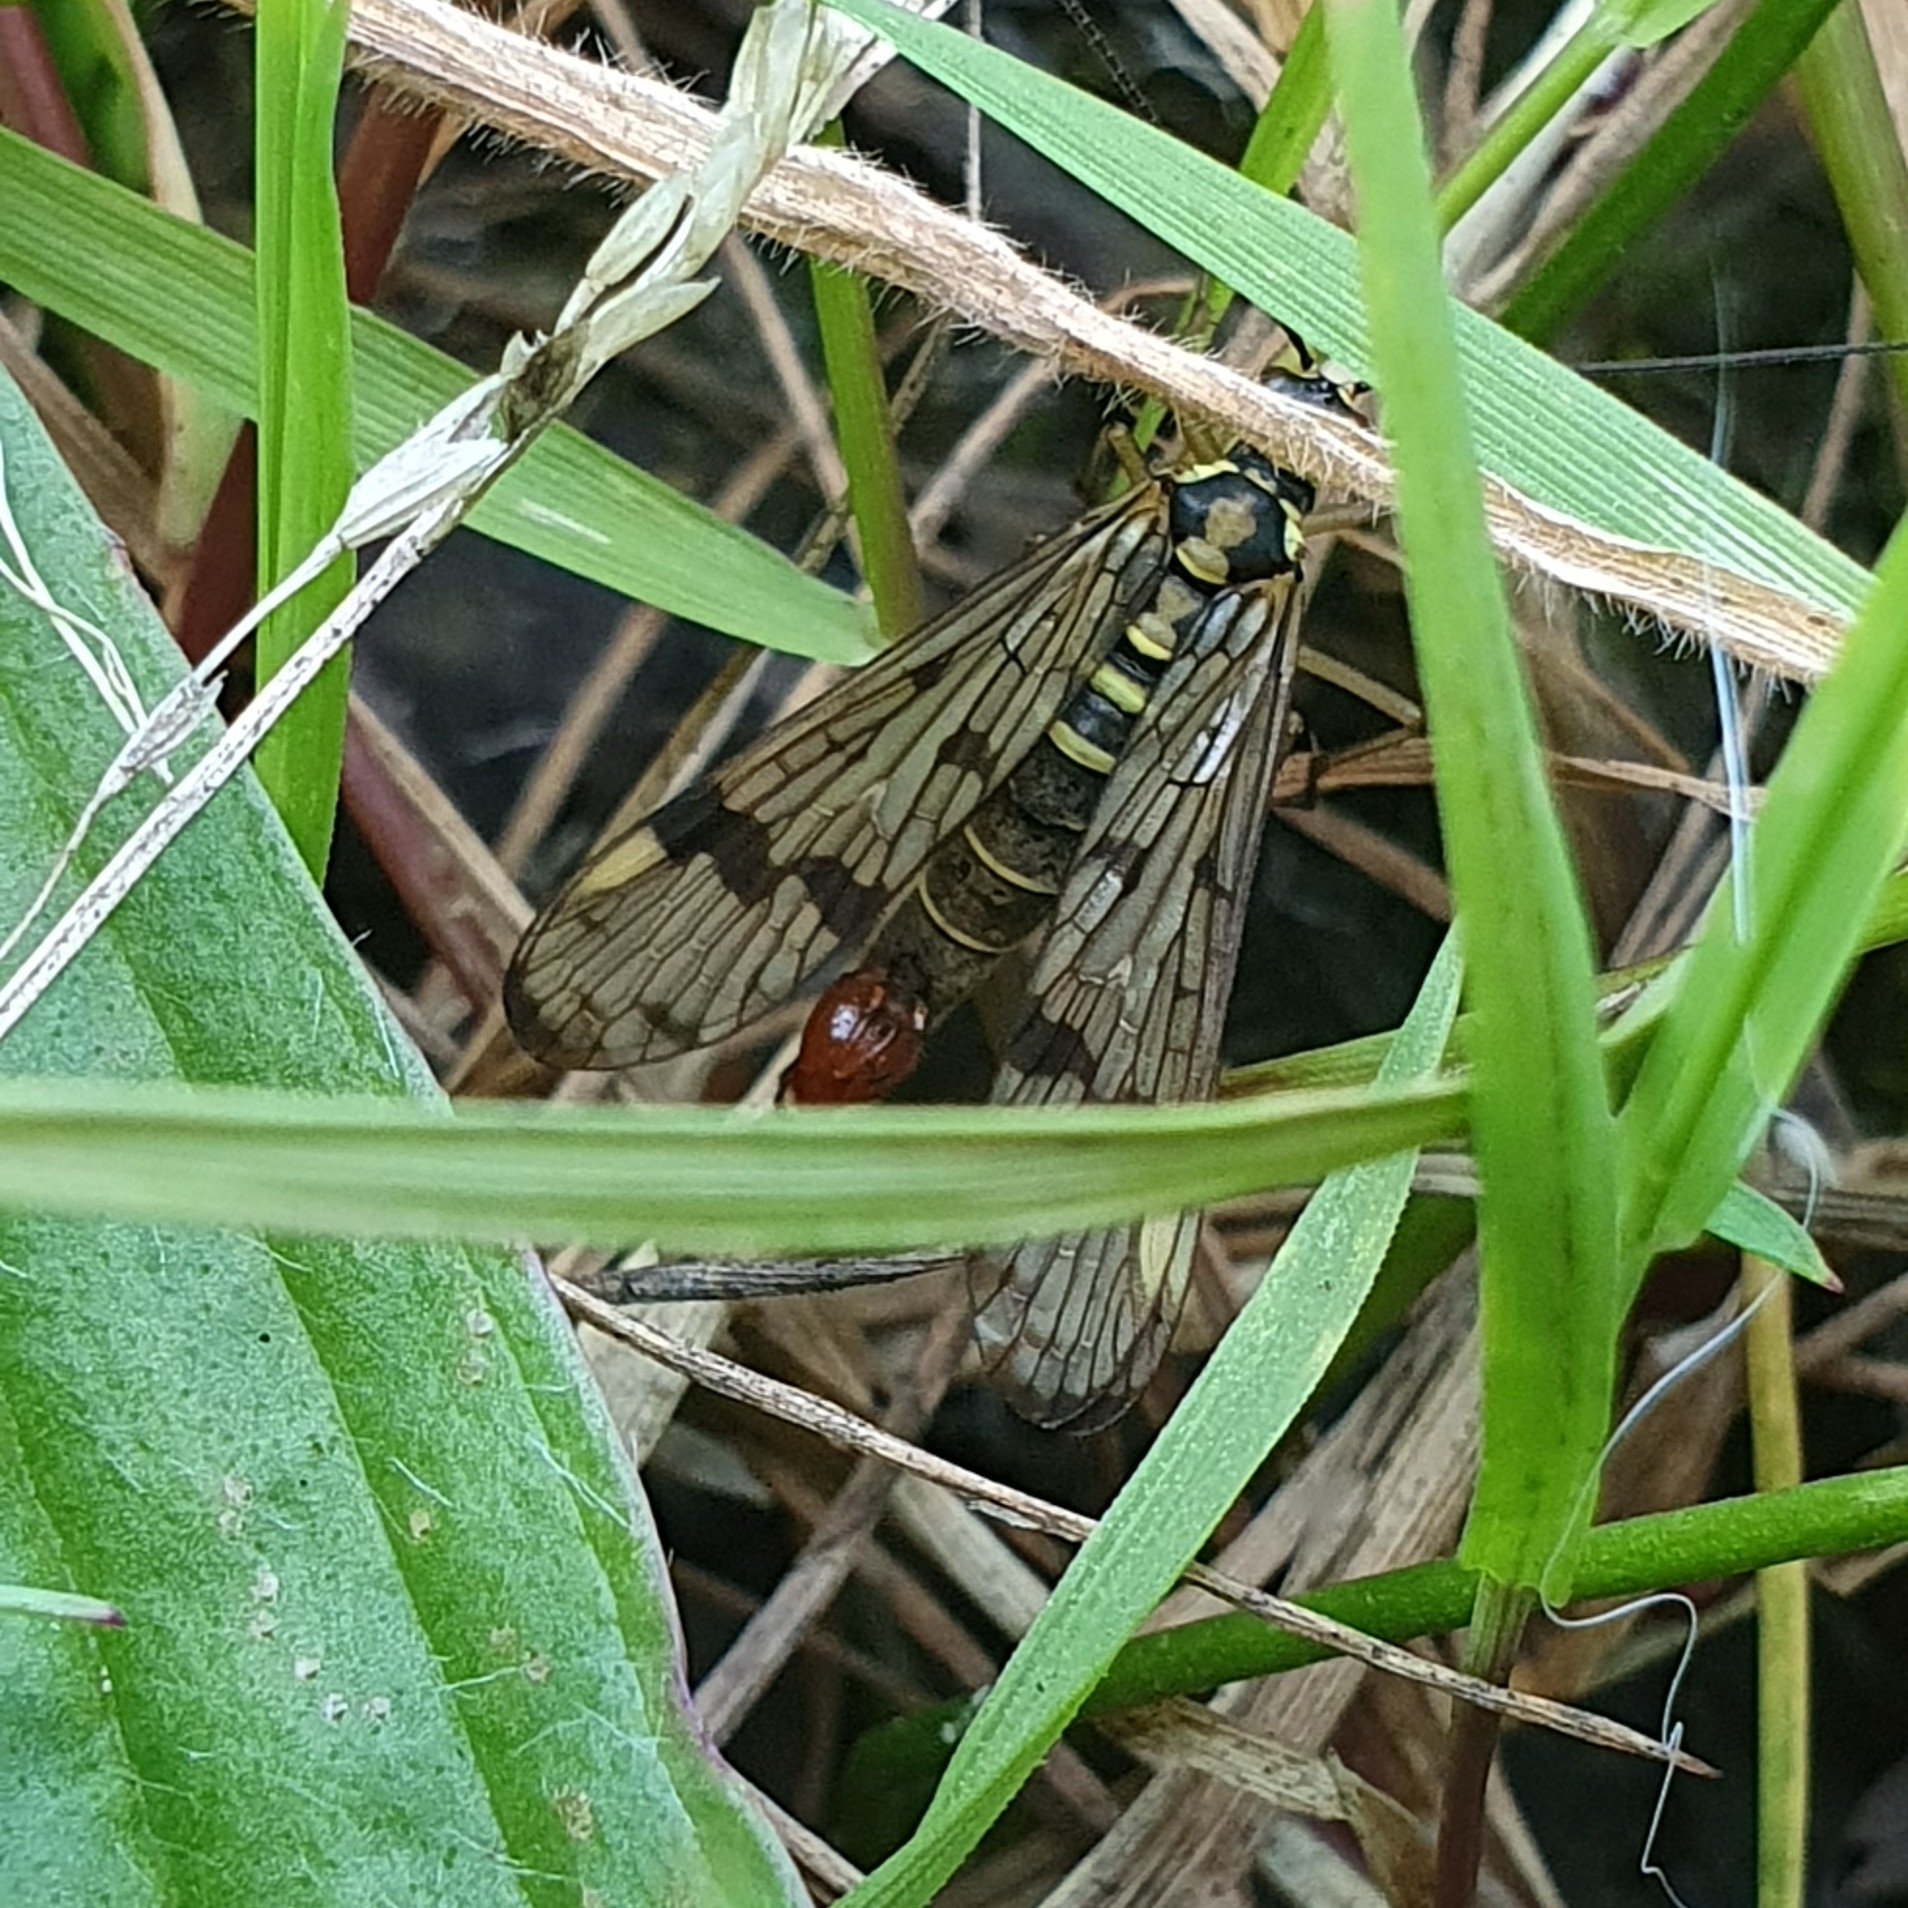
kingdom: Animalia
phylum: Arthropoda
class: Insecta
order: Mecoptera
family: Panorpidae
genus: Panorpa
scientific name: Panorpa communis
